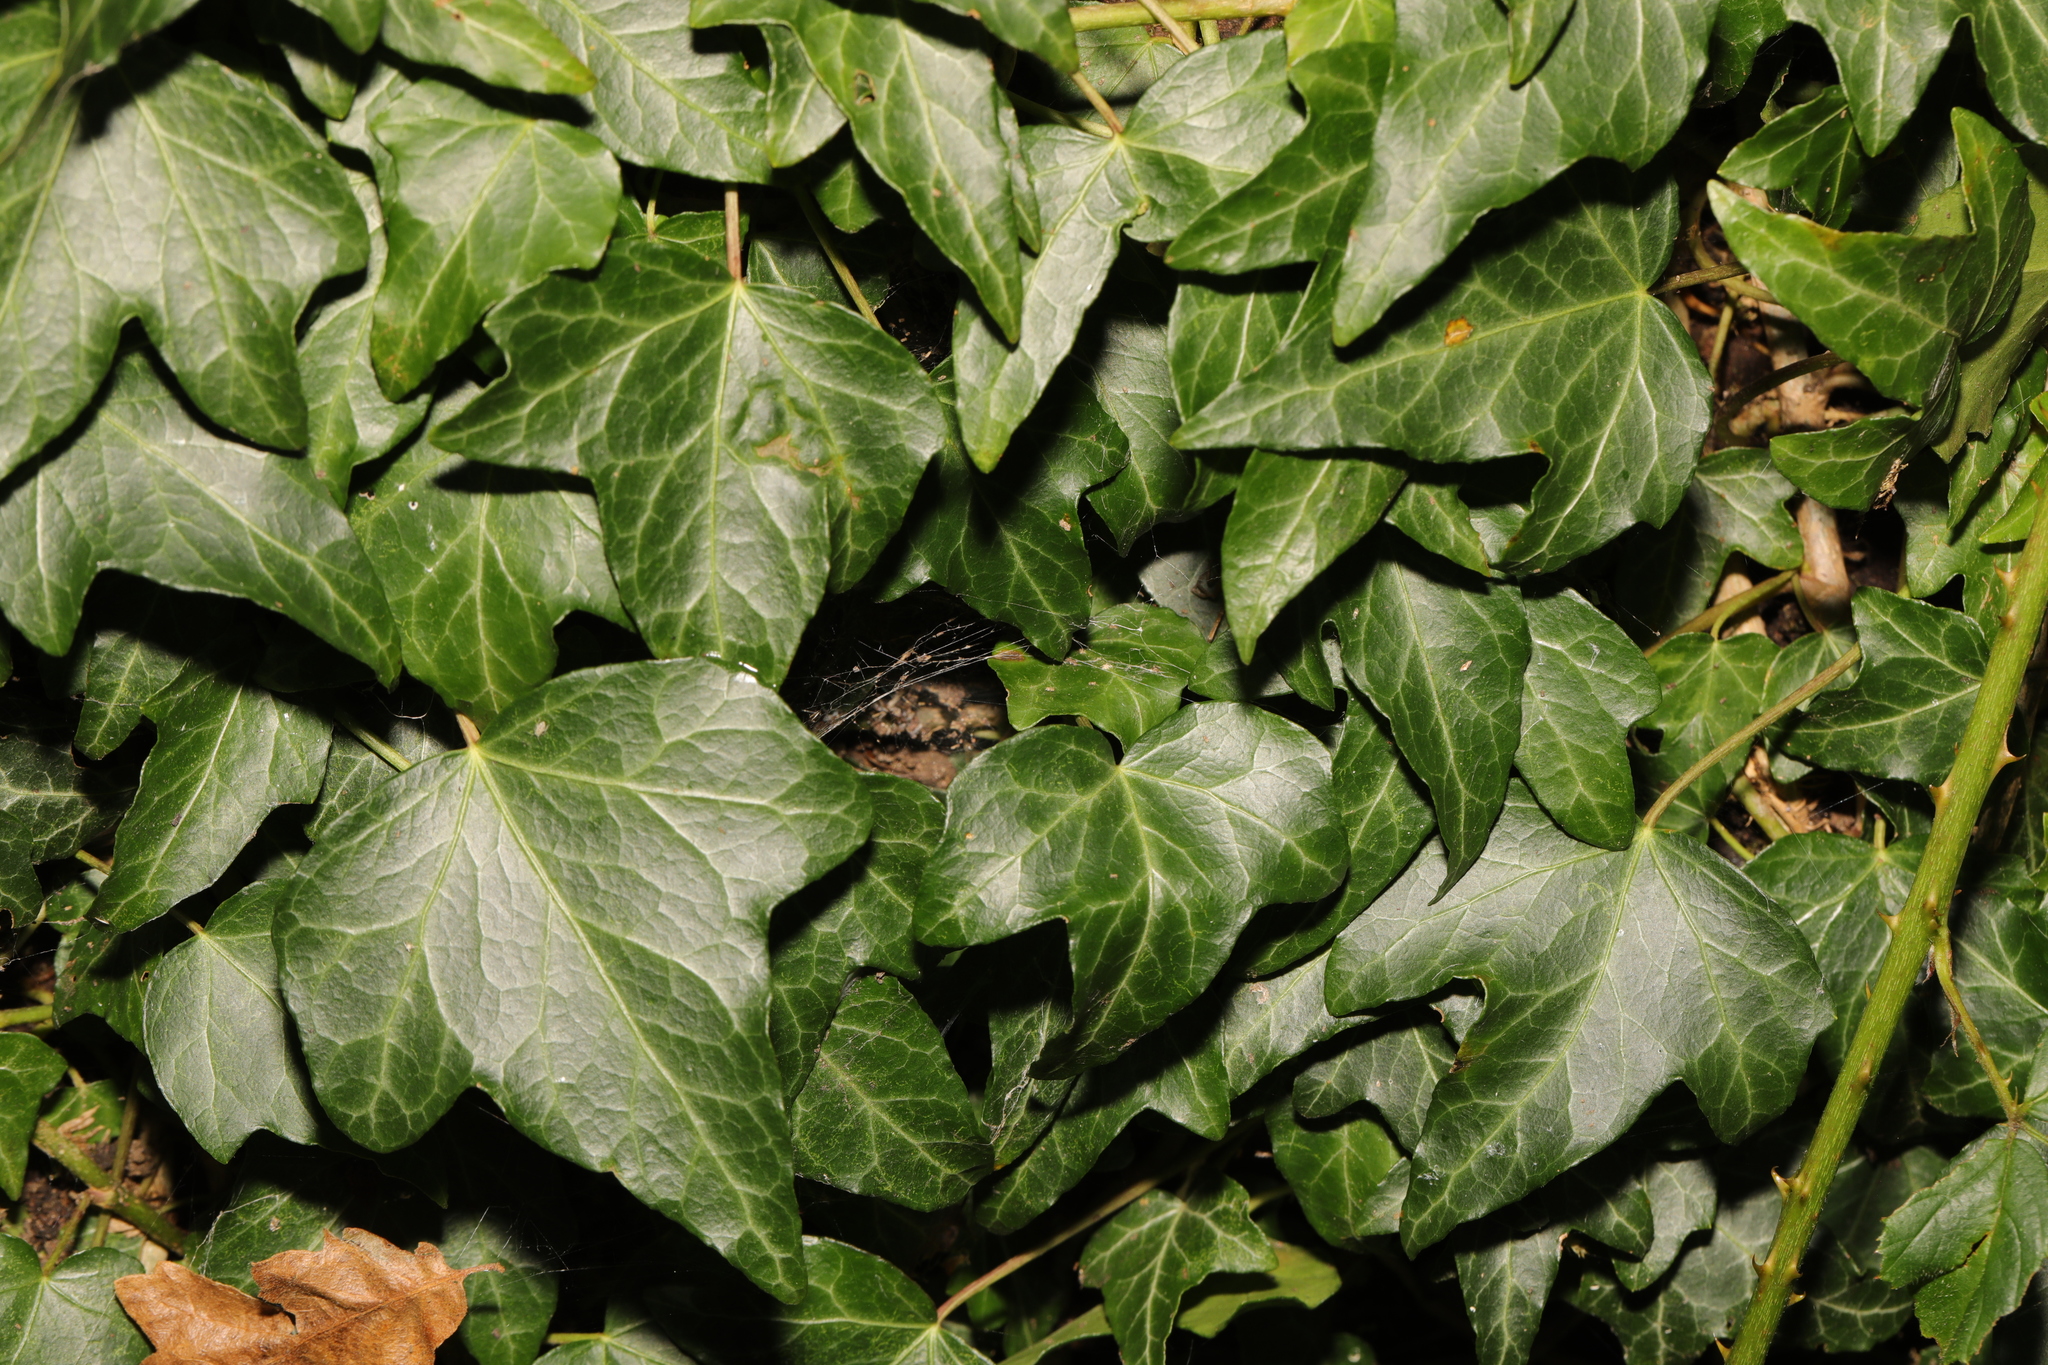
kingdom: Plantae
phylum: Tracheophyta
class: Magnoliopsida
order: Apiales
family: Araliaceae
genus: Hedera
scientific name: Hedera helix
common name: Ivy
